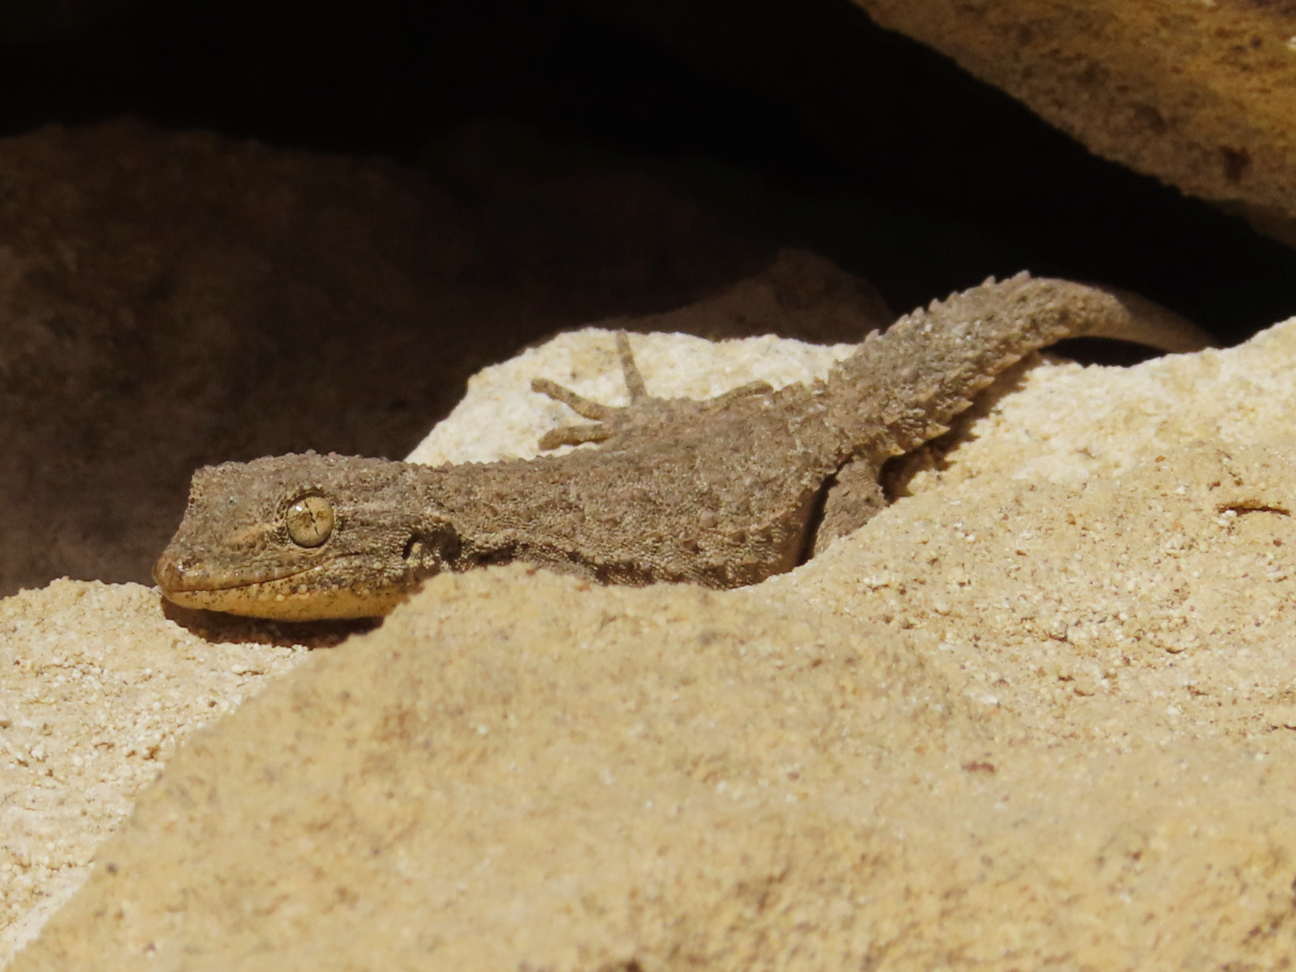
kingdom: Animalia
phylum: Chordata
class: Squamata
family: Gekkonidae
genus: Mediodactylus
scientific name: Mediodactylus russowii
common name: Grey thin-toed gecko
